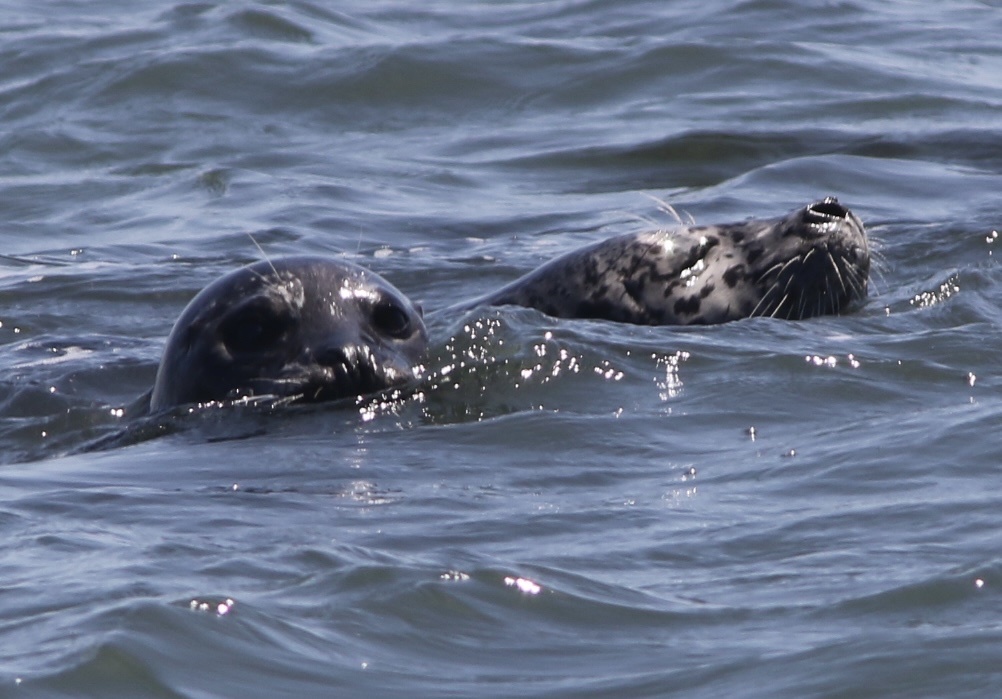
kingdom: Animalia
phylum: Chordata
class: Mammalia
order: Carnivora
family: Phocidae
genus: Phoca
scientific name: Phoca vitulina
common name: Harbor seal
